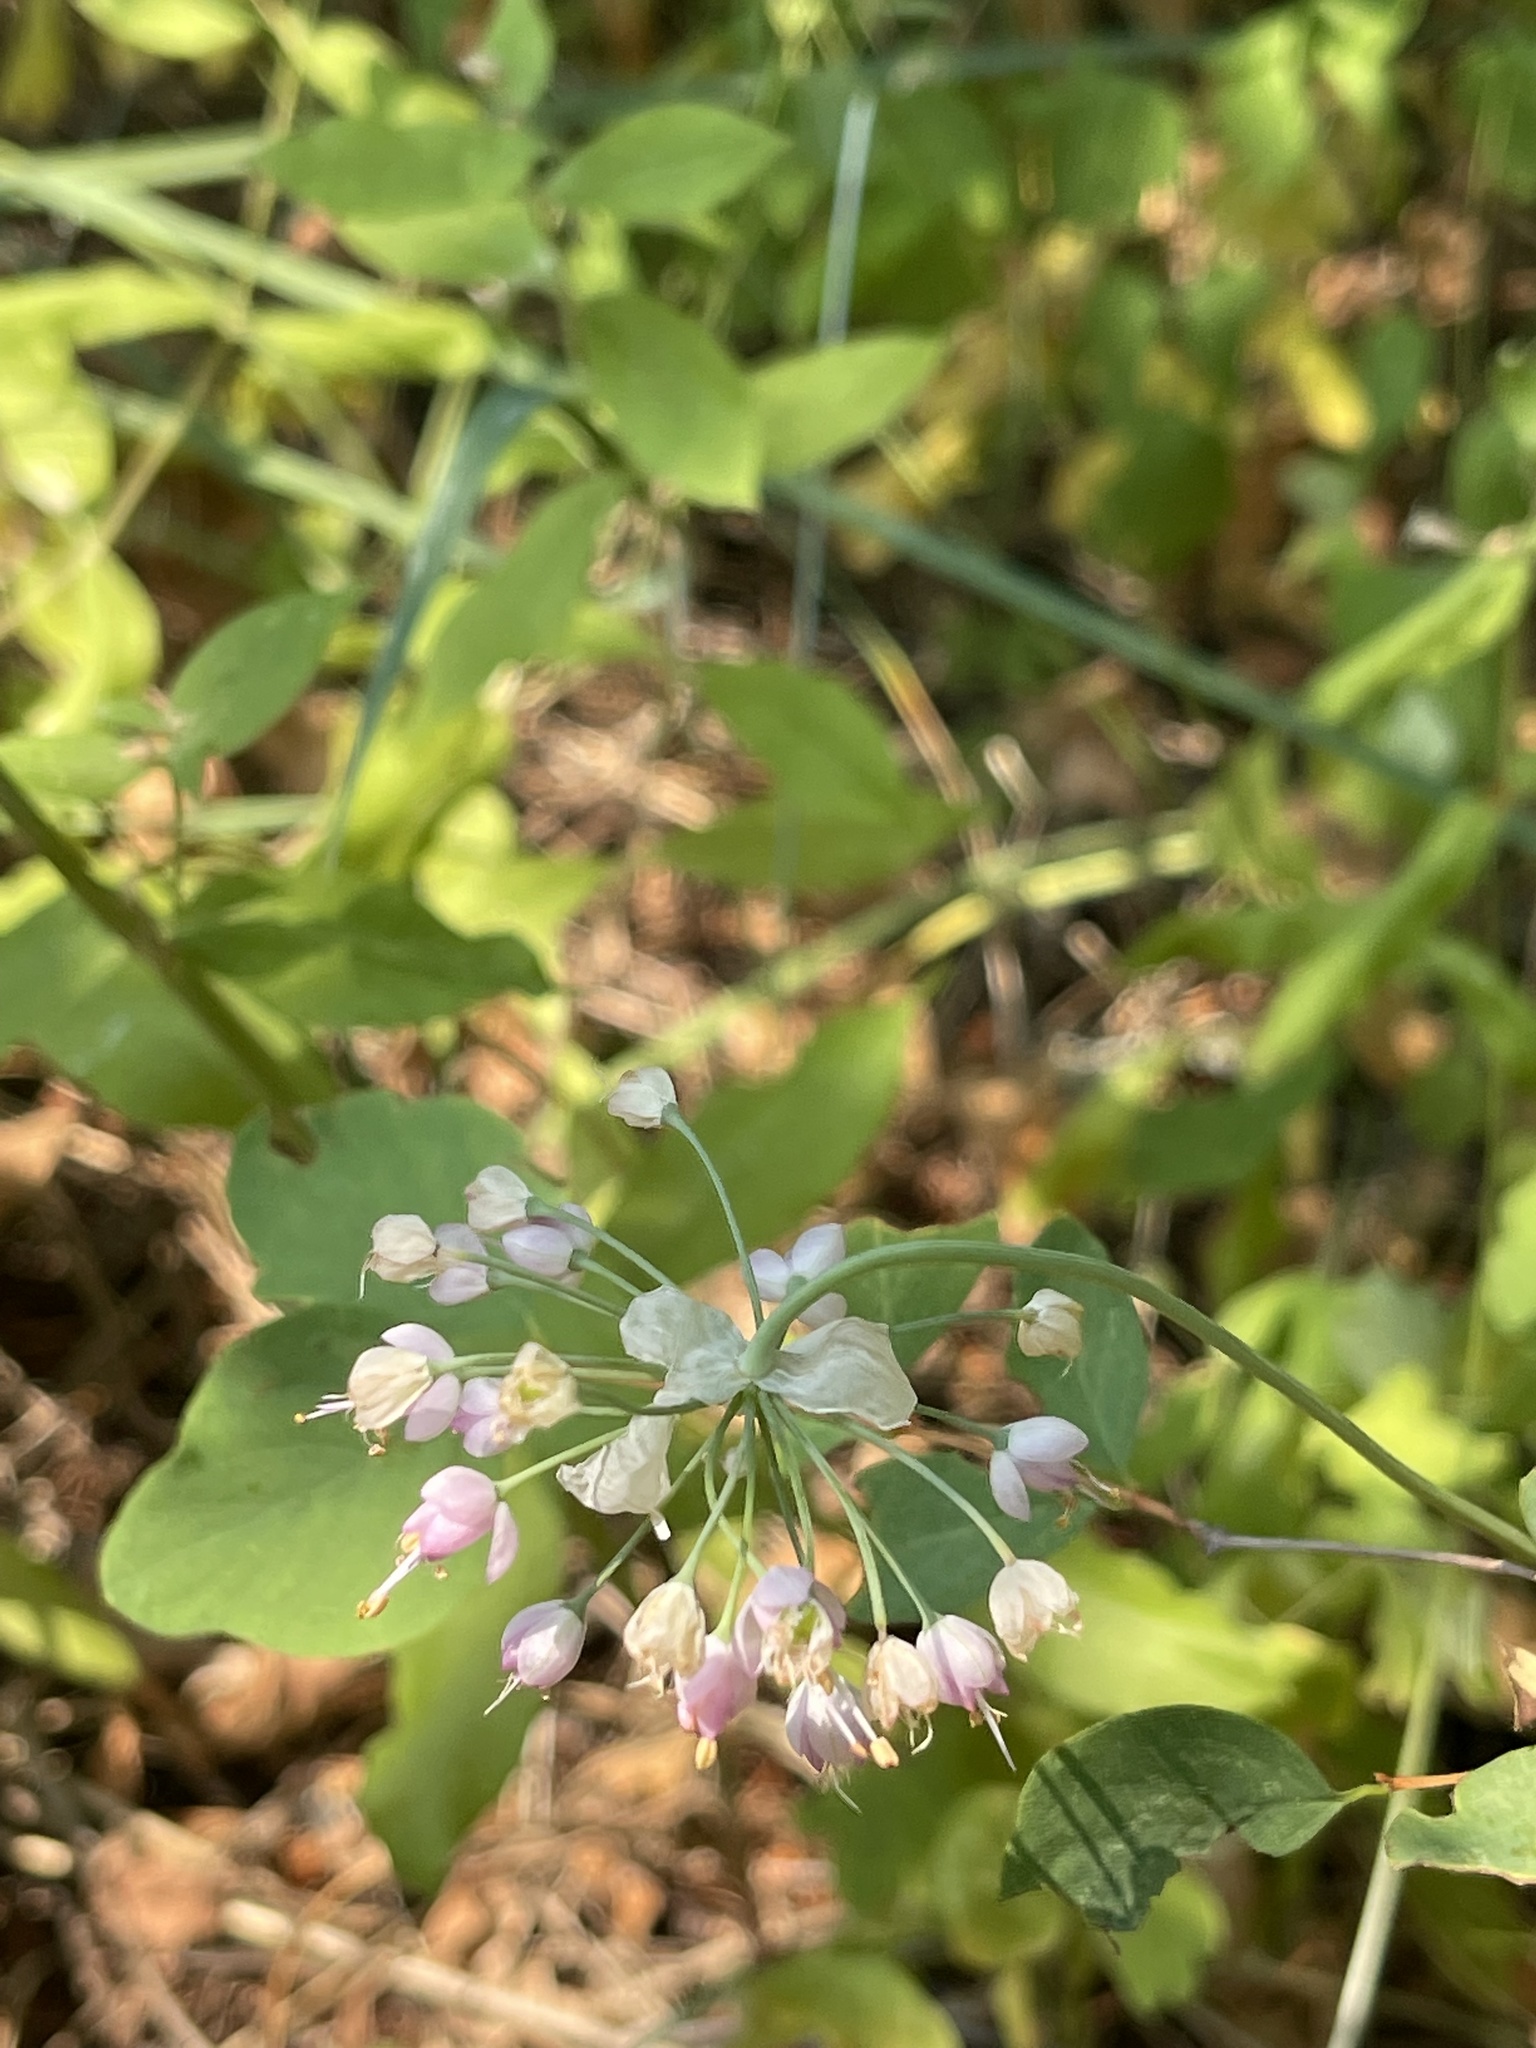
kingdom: Plantae
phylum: Tracheophyta
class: Liliopsida
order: Asparagales
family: Amaryllidaceae
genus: Allium
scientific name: Allium cernuum
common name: Nodding onion
